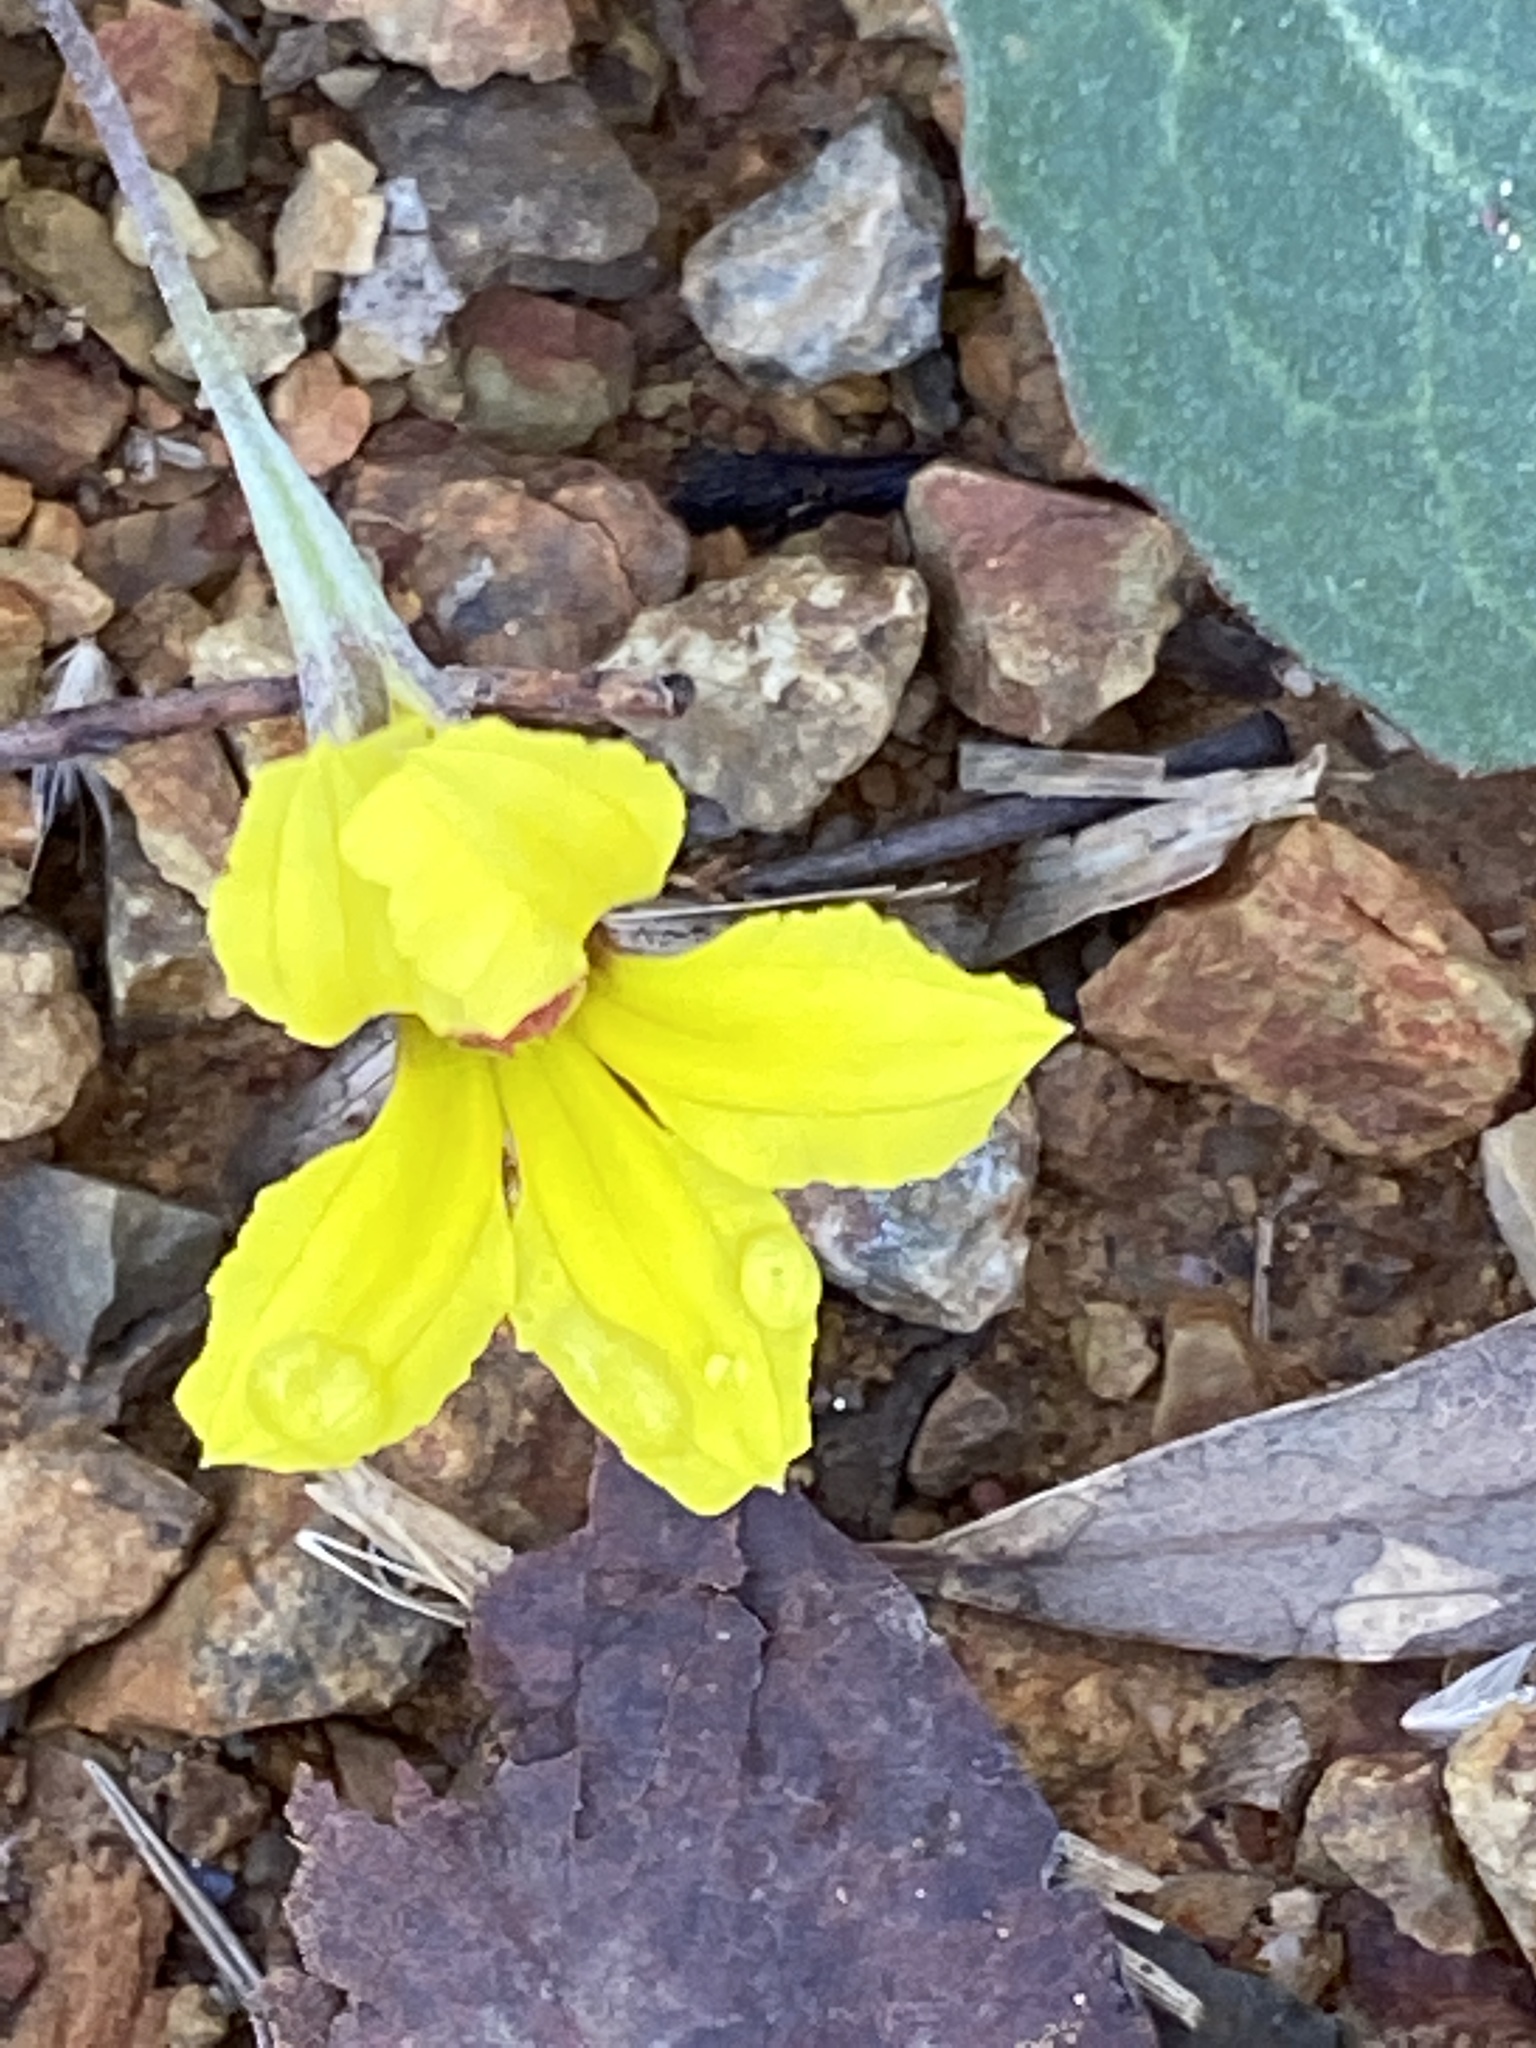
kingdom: Plantae
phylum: Tracheophyta
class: Magnoliopsida
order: Asterales
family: Goodeniaceae
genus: Goodenia
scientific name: Goodenia hederacea
